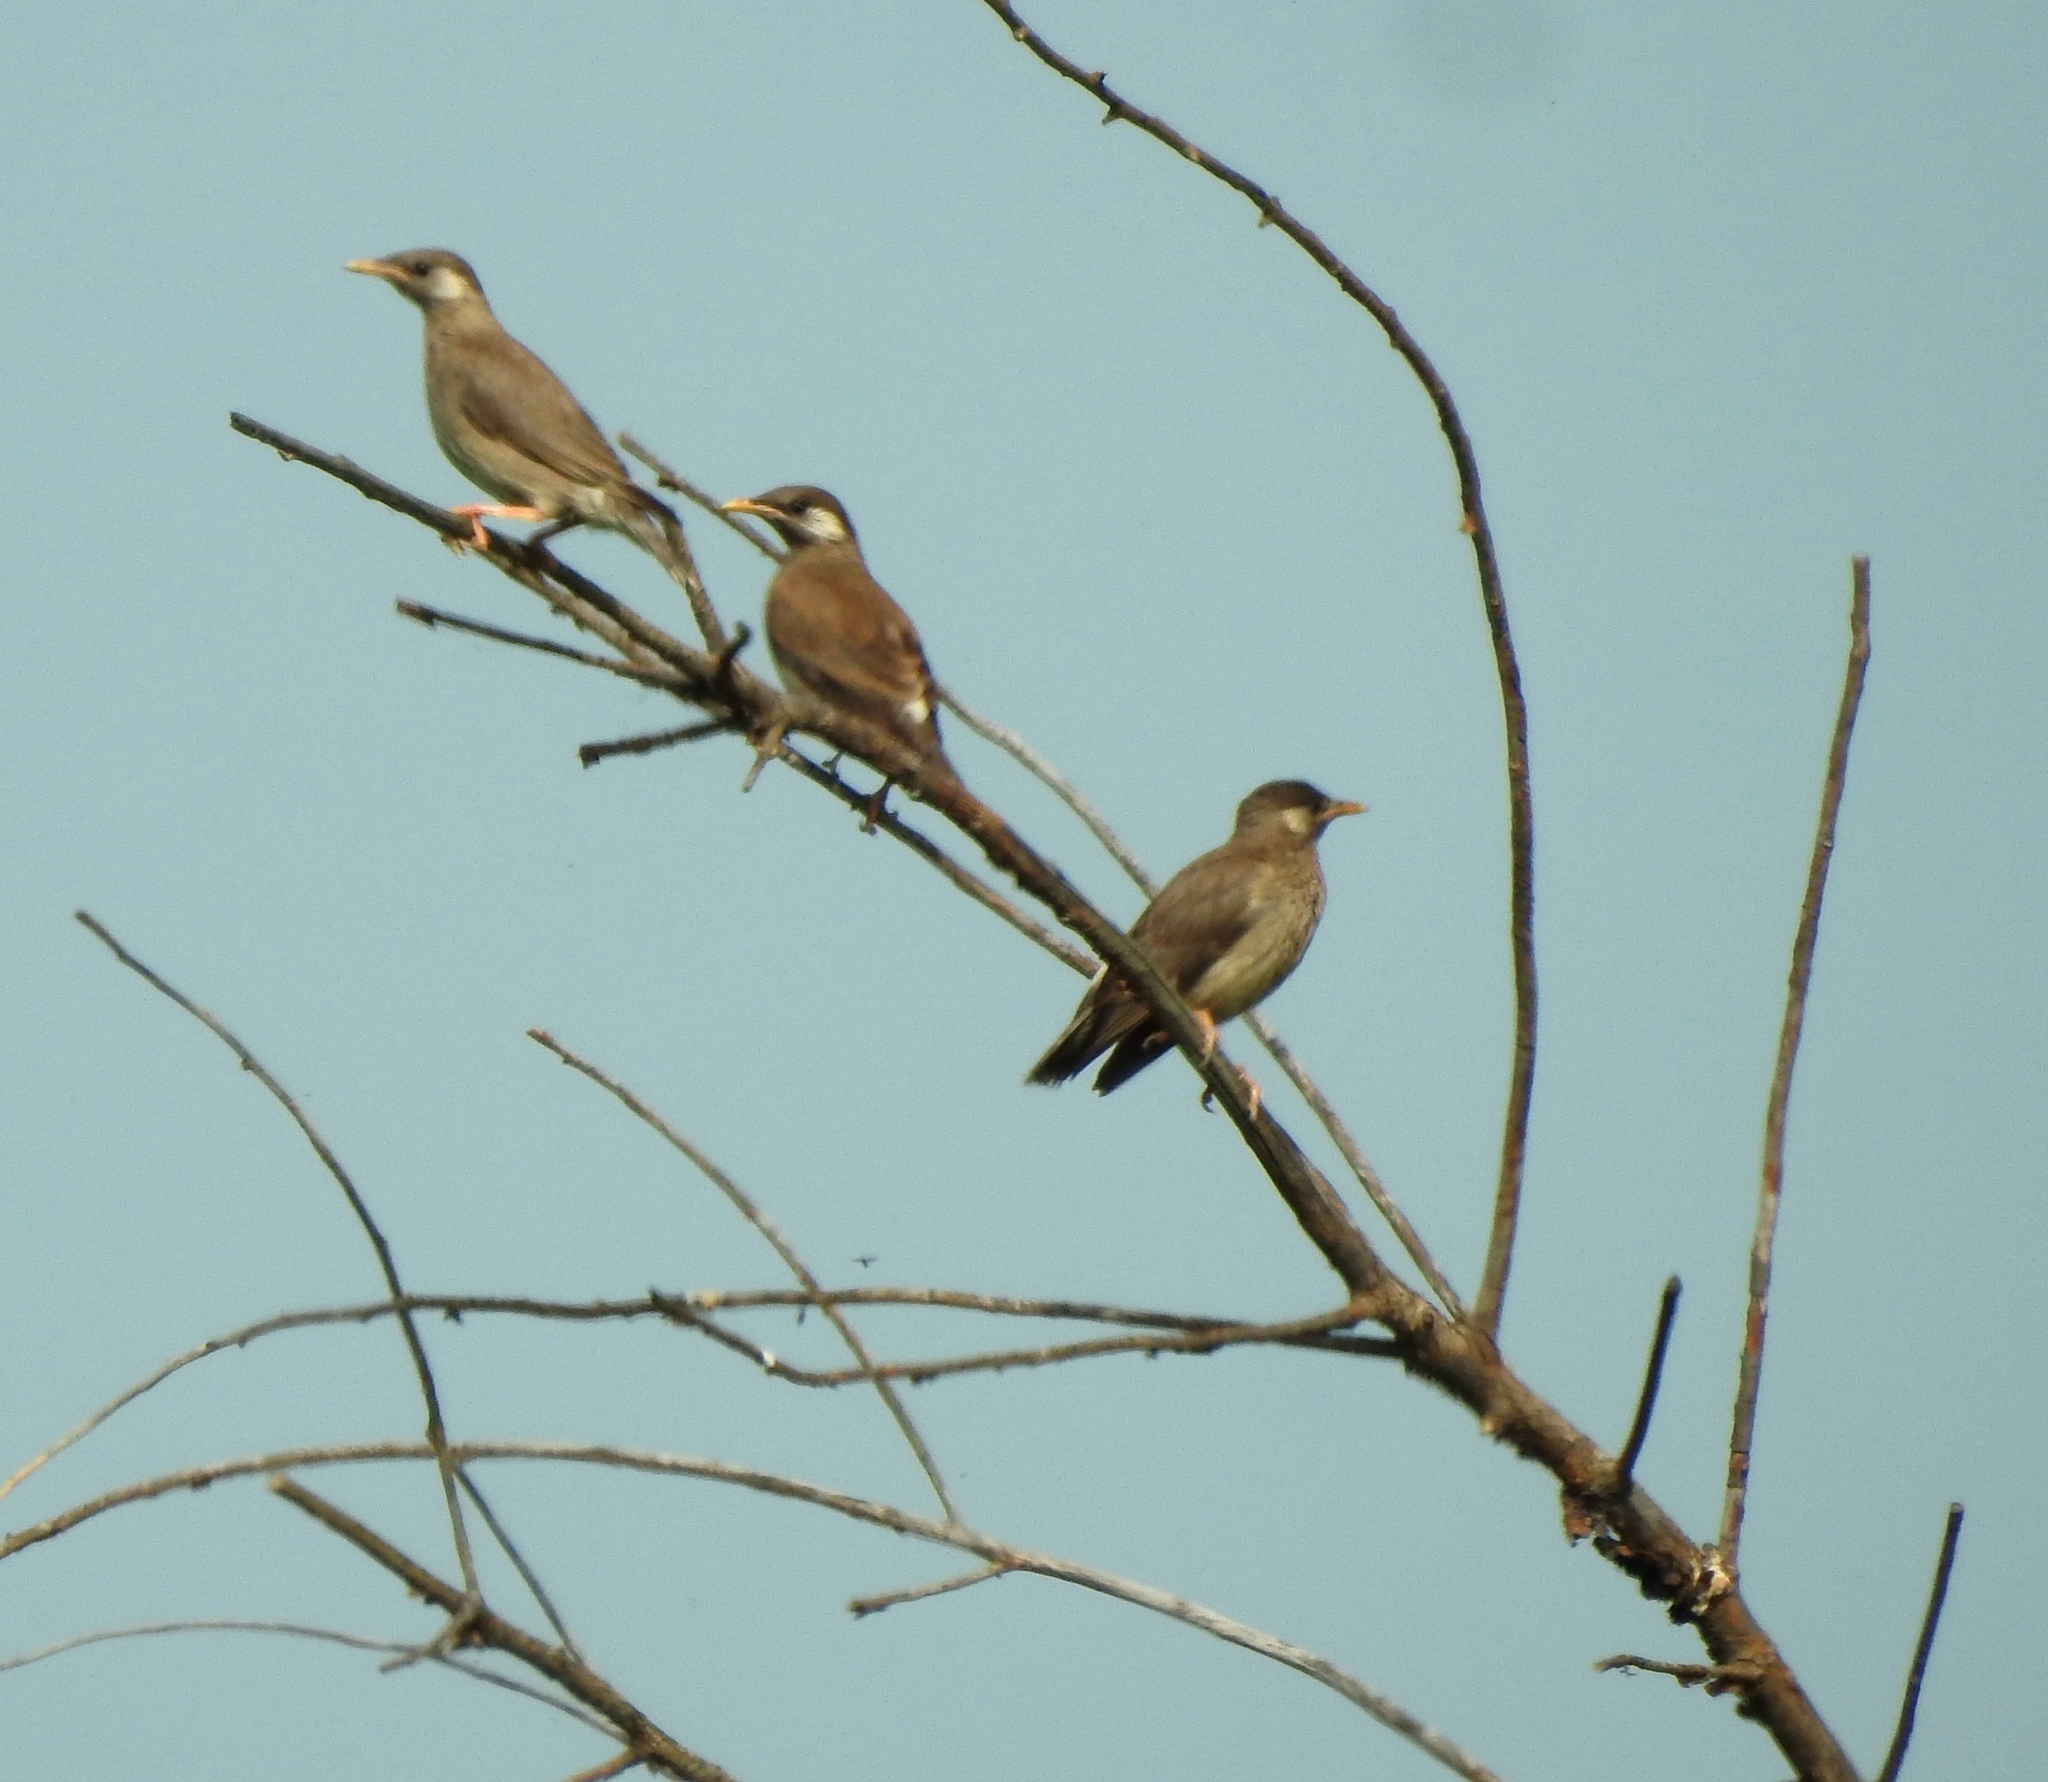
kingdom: Animalia
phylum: Chordata
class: Aves
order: Passeriformes
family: Sturnidae
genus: Spodiopsar
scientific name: Spodiopsar cineraceus
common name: White-cheeked starling
